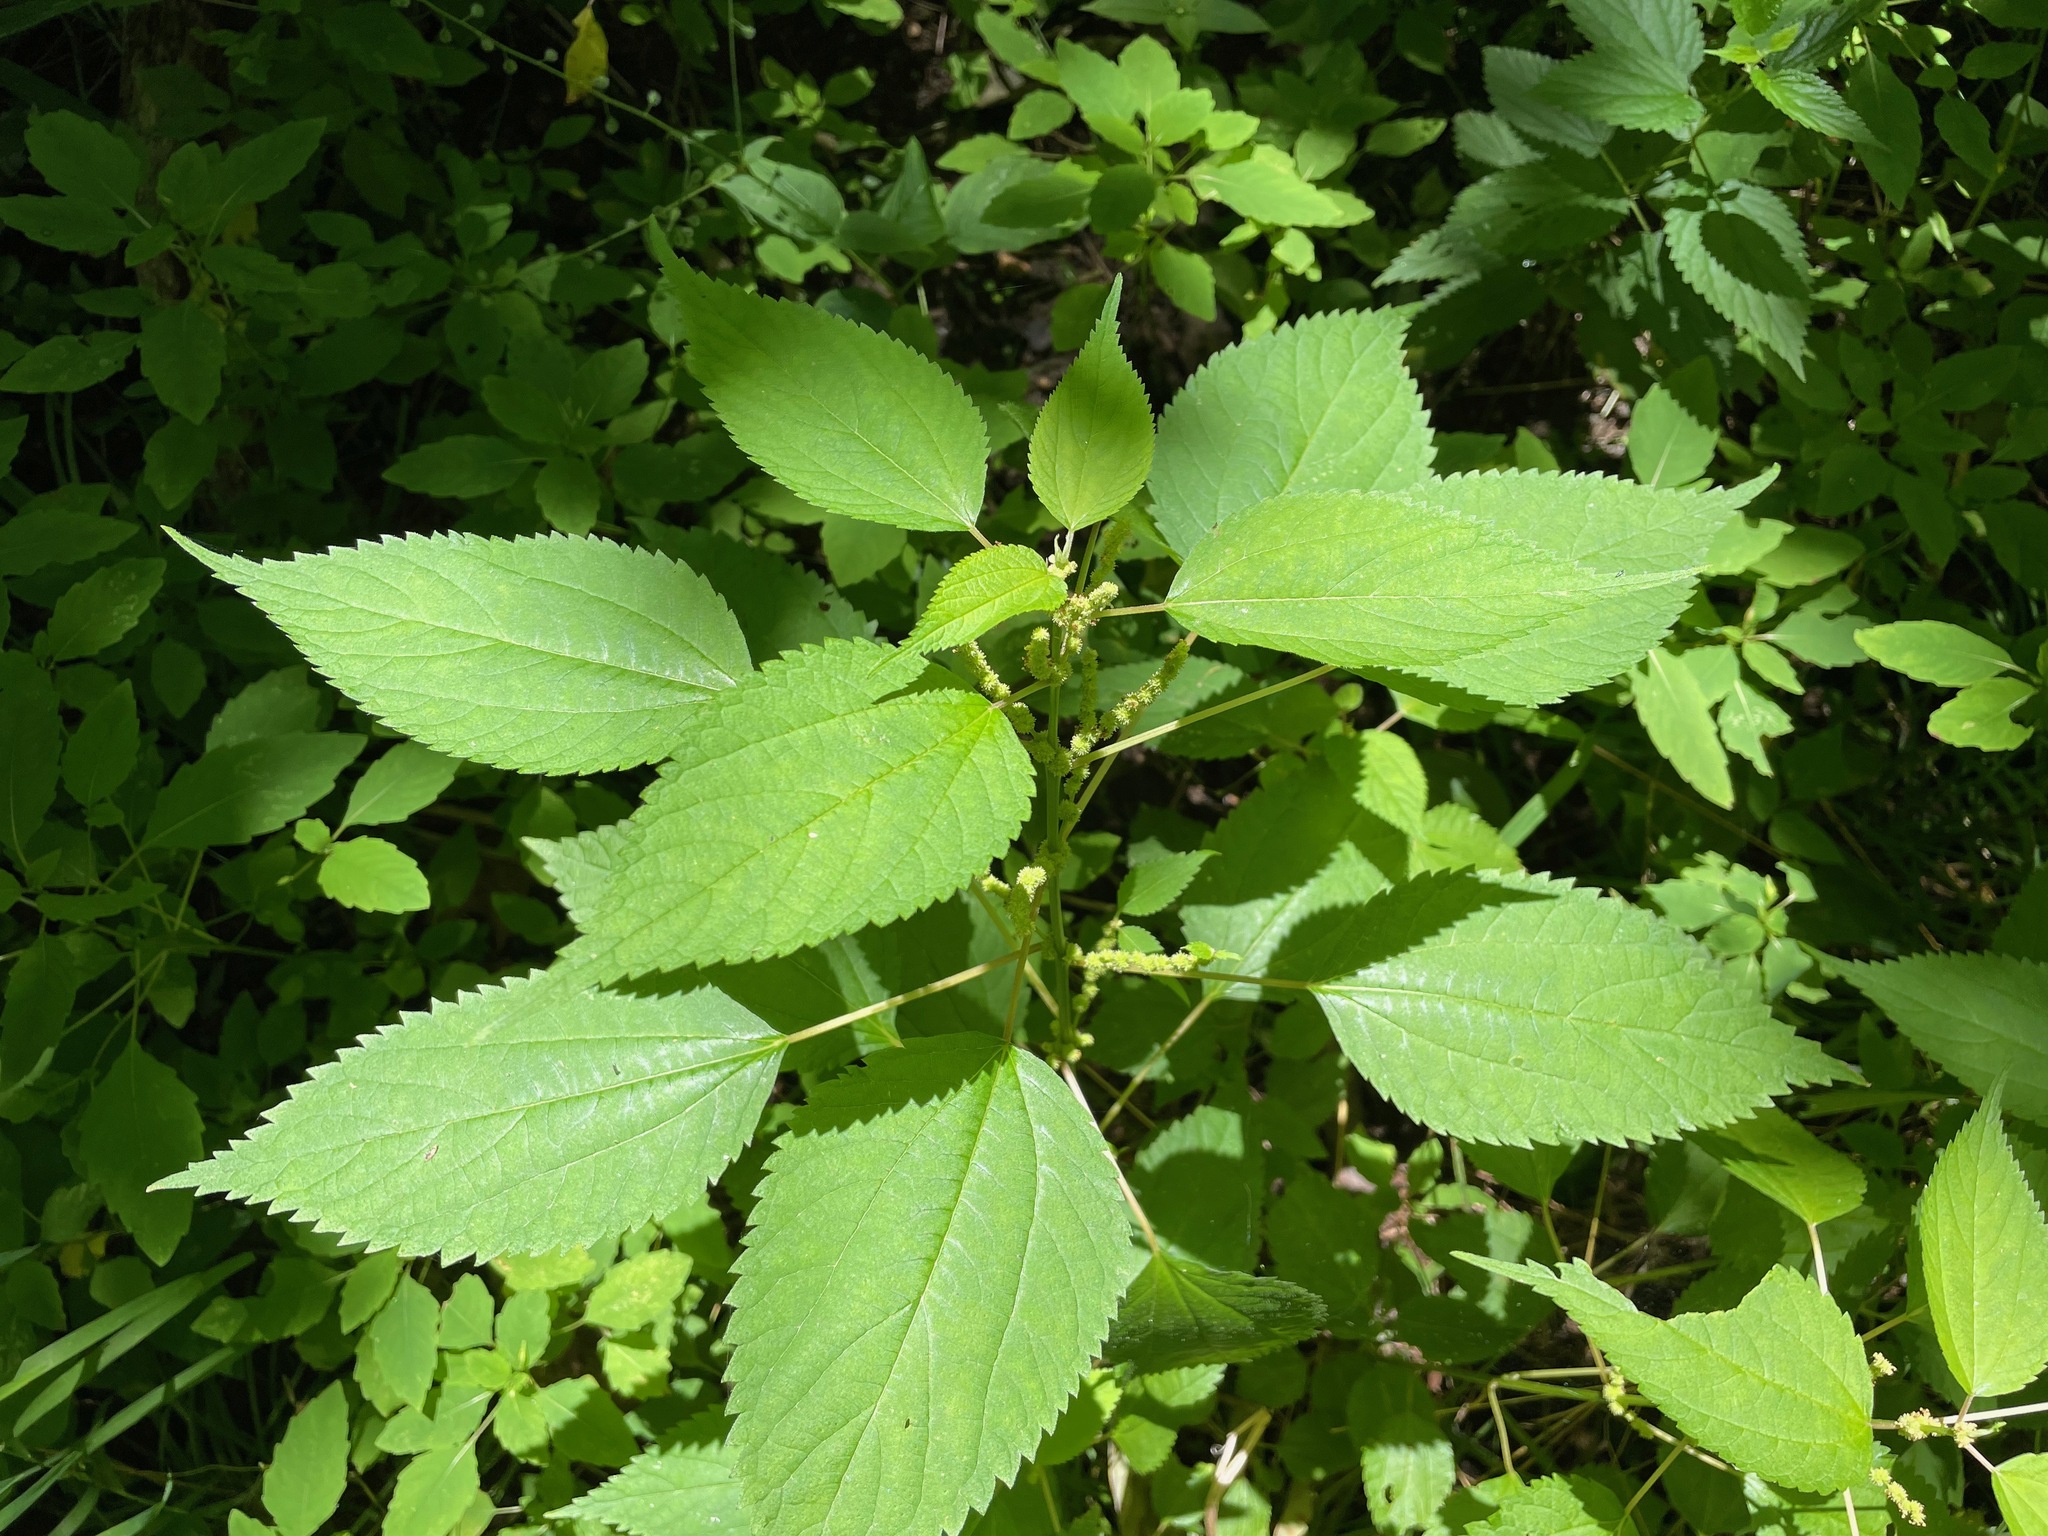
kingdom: Plantae
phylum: Tracheophyta
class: Magnoliopsida
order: Rosales
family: Urticaceae
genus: Boehmeria
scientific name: Boehmeria cylindrica
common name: Bog-hemp
